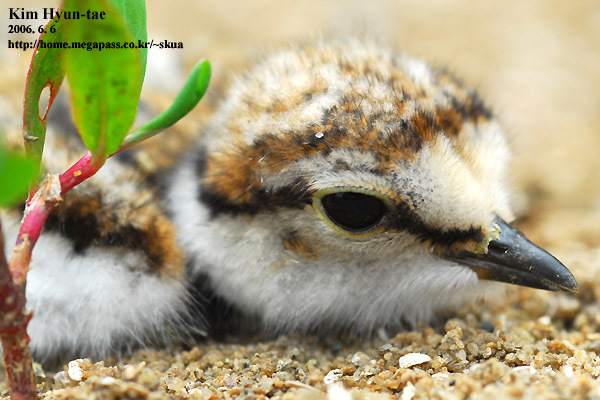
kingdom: Animalia
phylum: Chordata
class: Aves
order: Charadriiformes
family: Charadriidae
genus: Charadrius
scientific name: Charadrius dubius
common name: Little ringed plover
